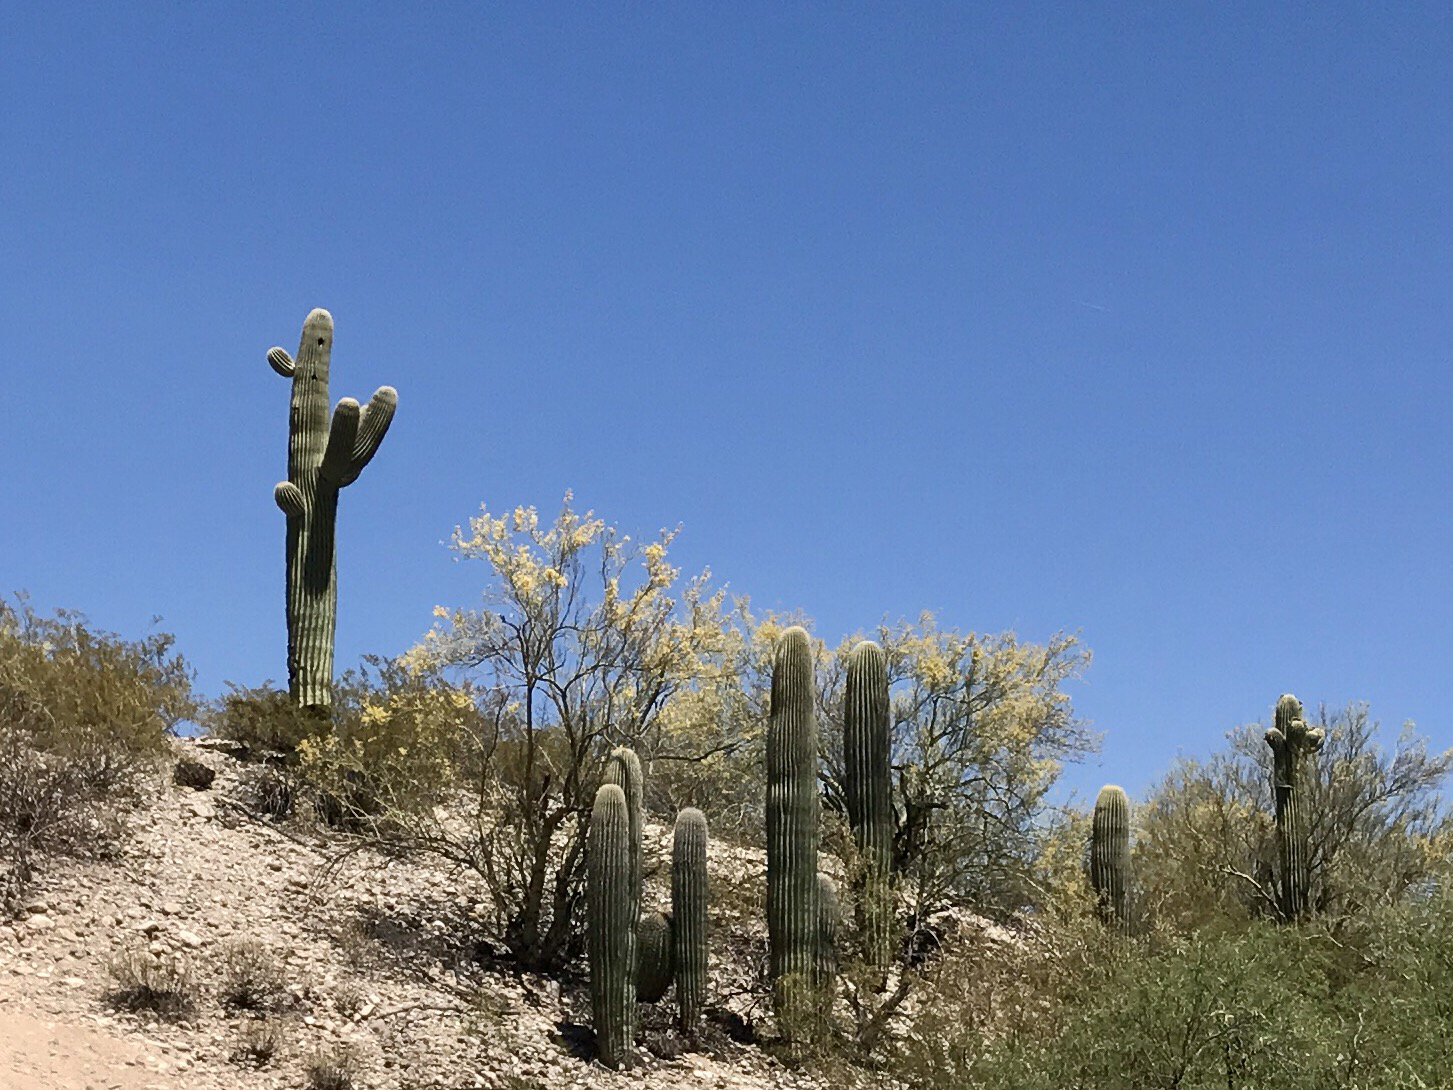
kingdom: Plantae
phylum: Tracheophyta
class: Magnoliopsida
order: Caryophyllales
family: Cactaceae
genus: Carnegiea
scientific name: Carnegiea gigantea
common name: Saguaro
